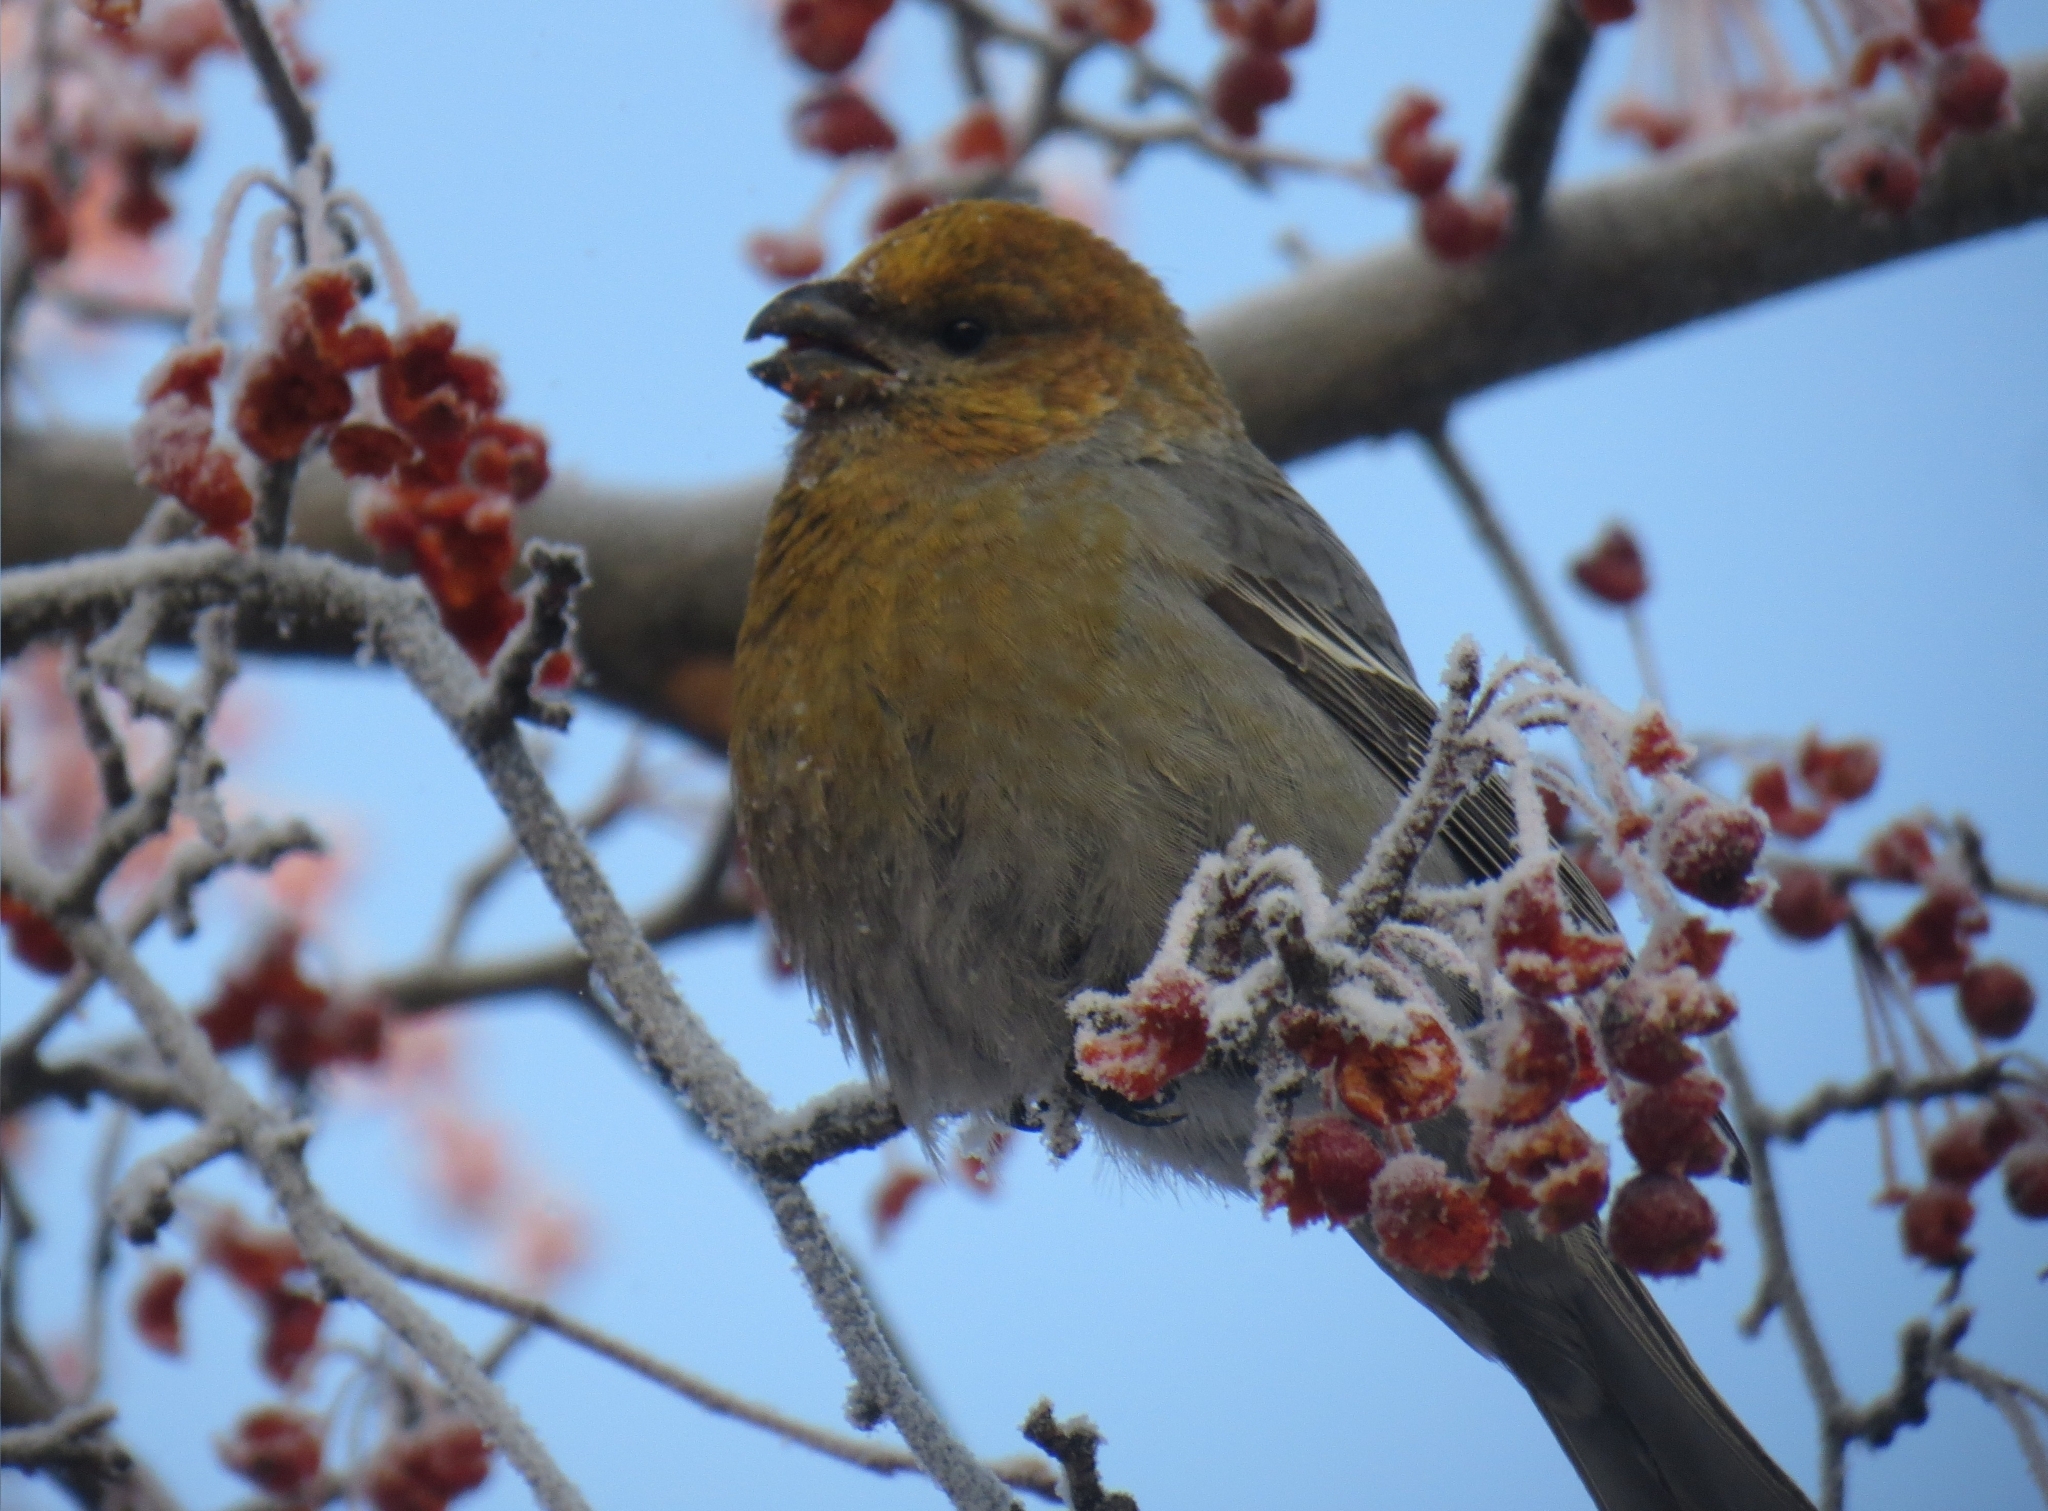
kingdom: Animalia
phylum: Chordata
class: Aves
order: Passeriformes
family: Fringillidae
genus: Pinicola
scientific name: Pinicola enucleator
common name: Pine grosbeak
